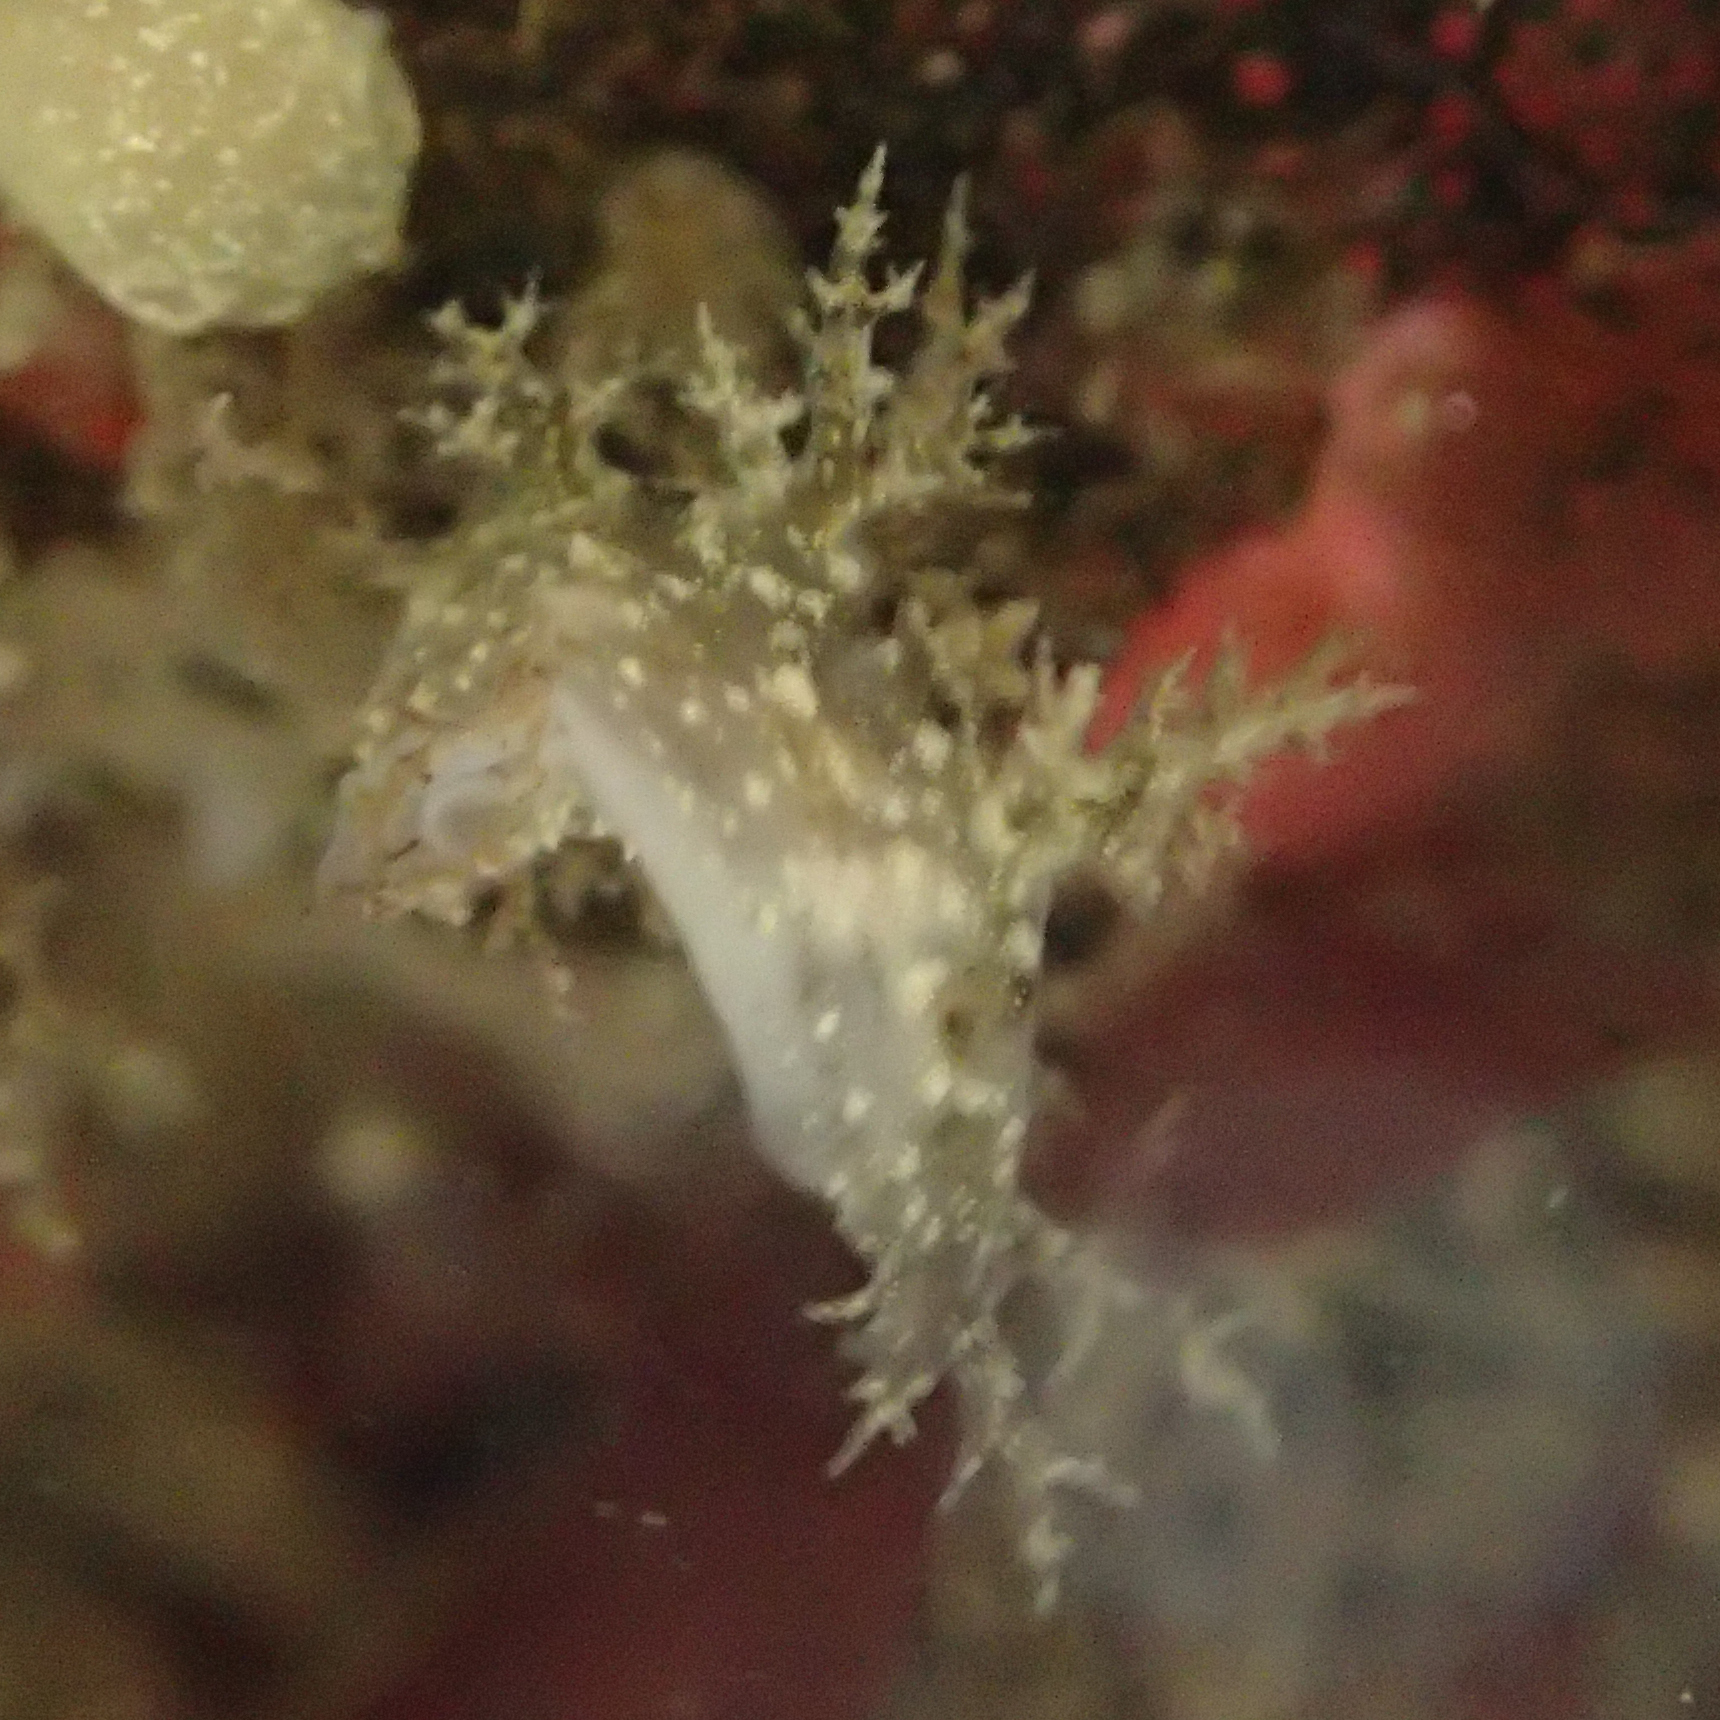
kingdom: Animalia
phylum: Mollusca
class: Gastropoda
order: Nudibranchia
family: Dendronotidae
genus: Dendronotus
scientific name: Dendronotus venustus
